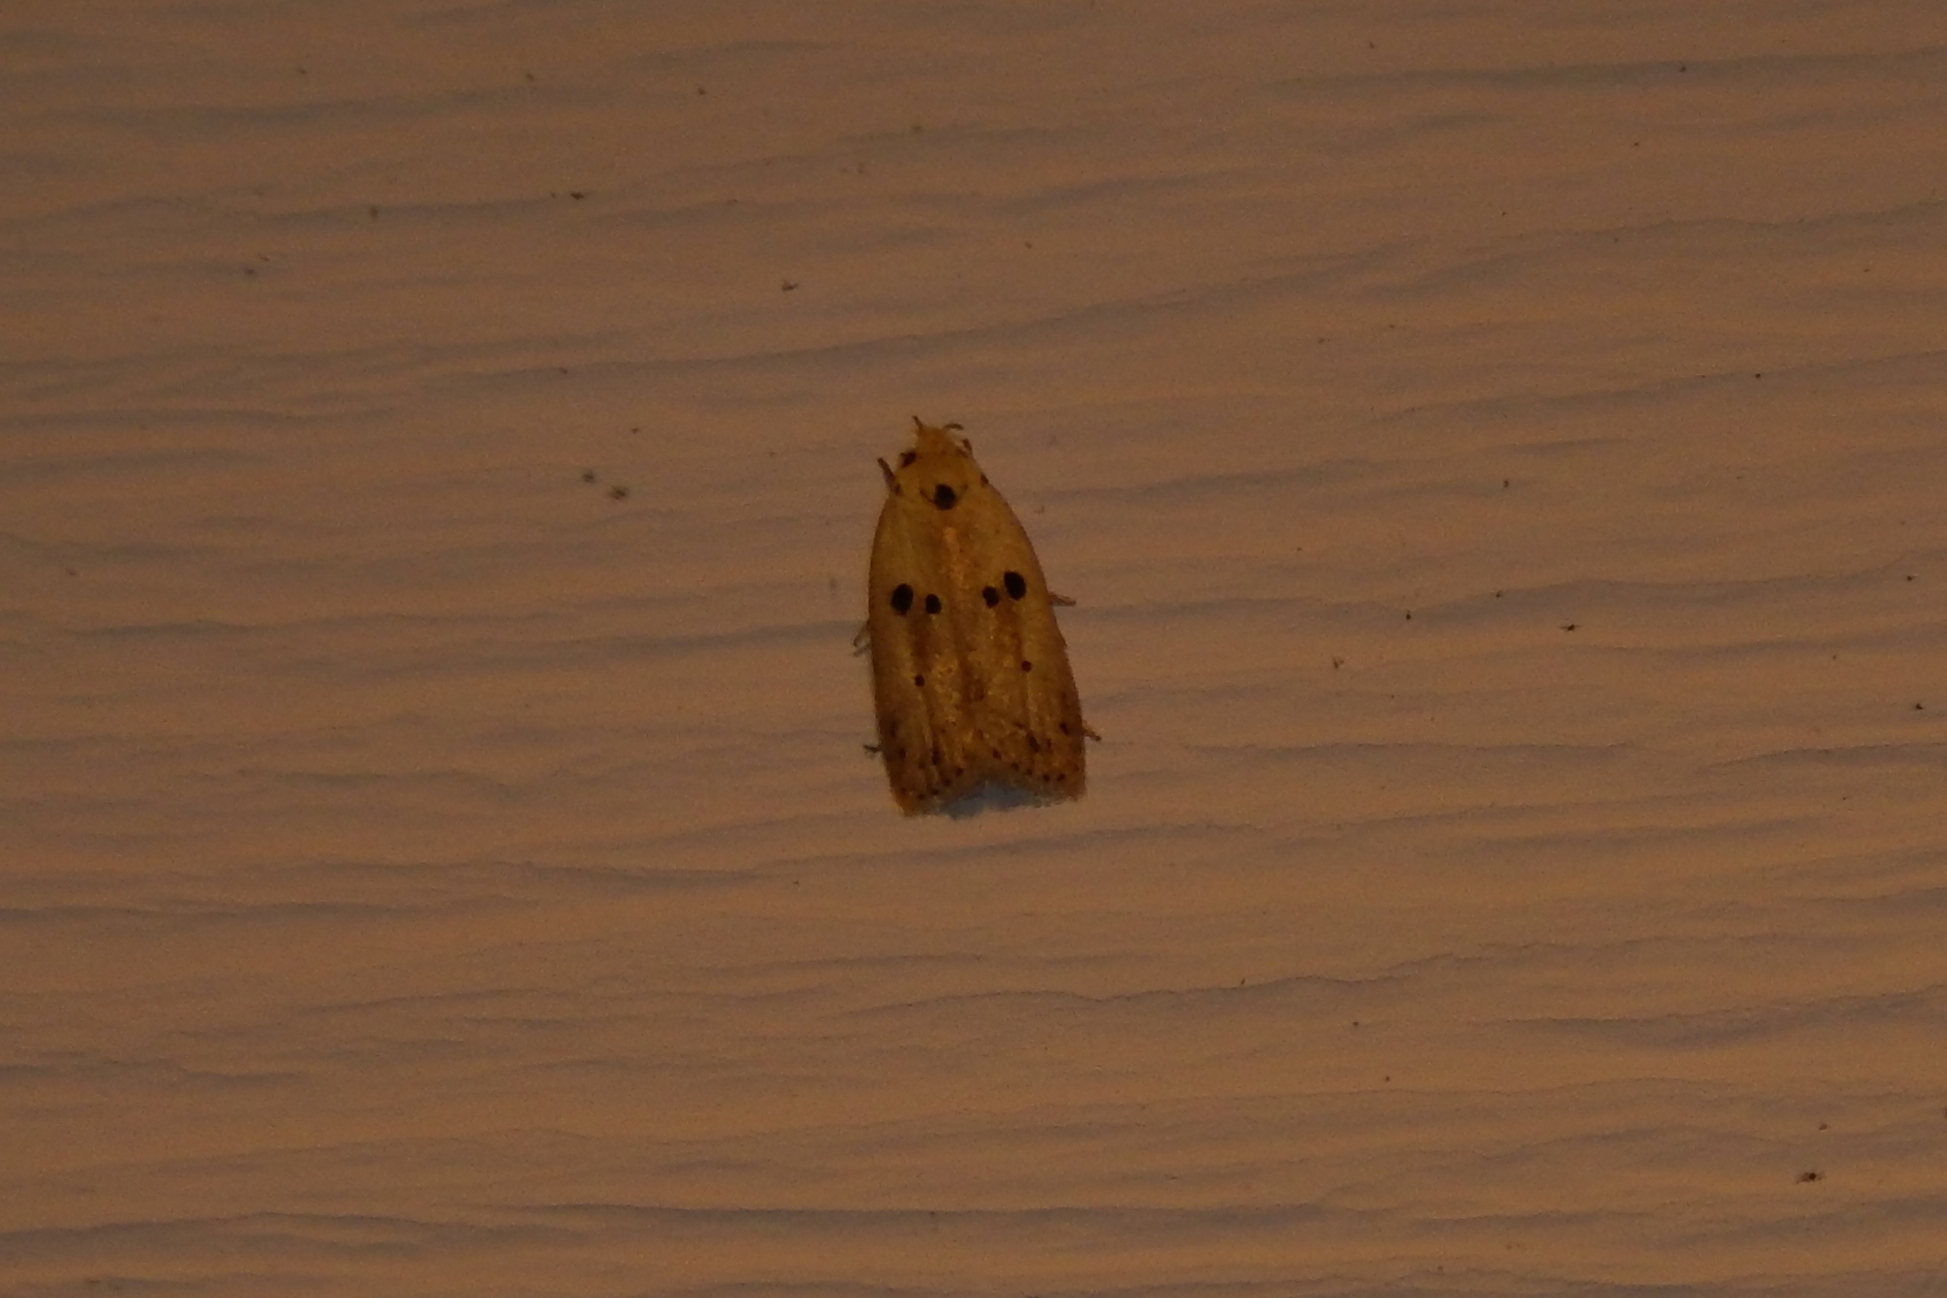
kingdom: Animalia
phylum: Arthropoda
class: Insecta
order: Lepidoptera
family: Peleopodidae
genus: Scythropiodes
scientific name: Scythropiodes issikii
